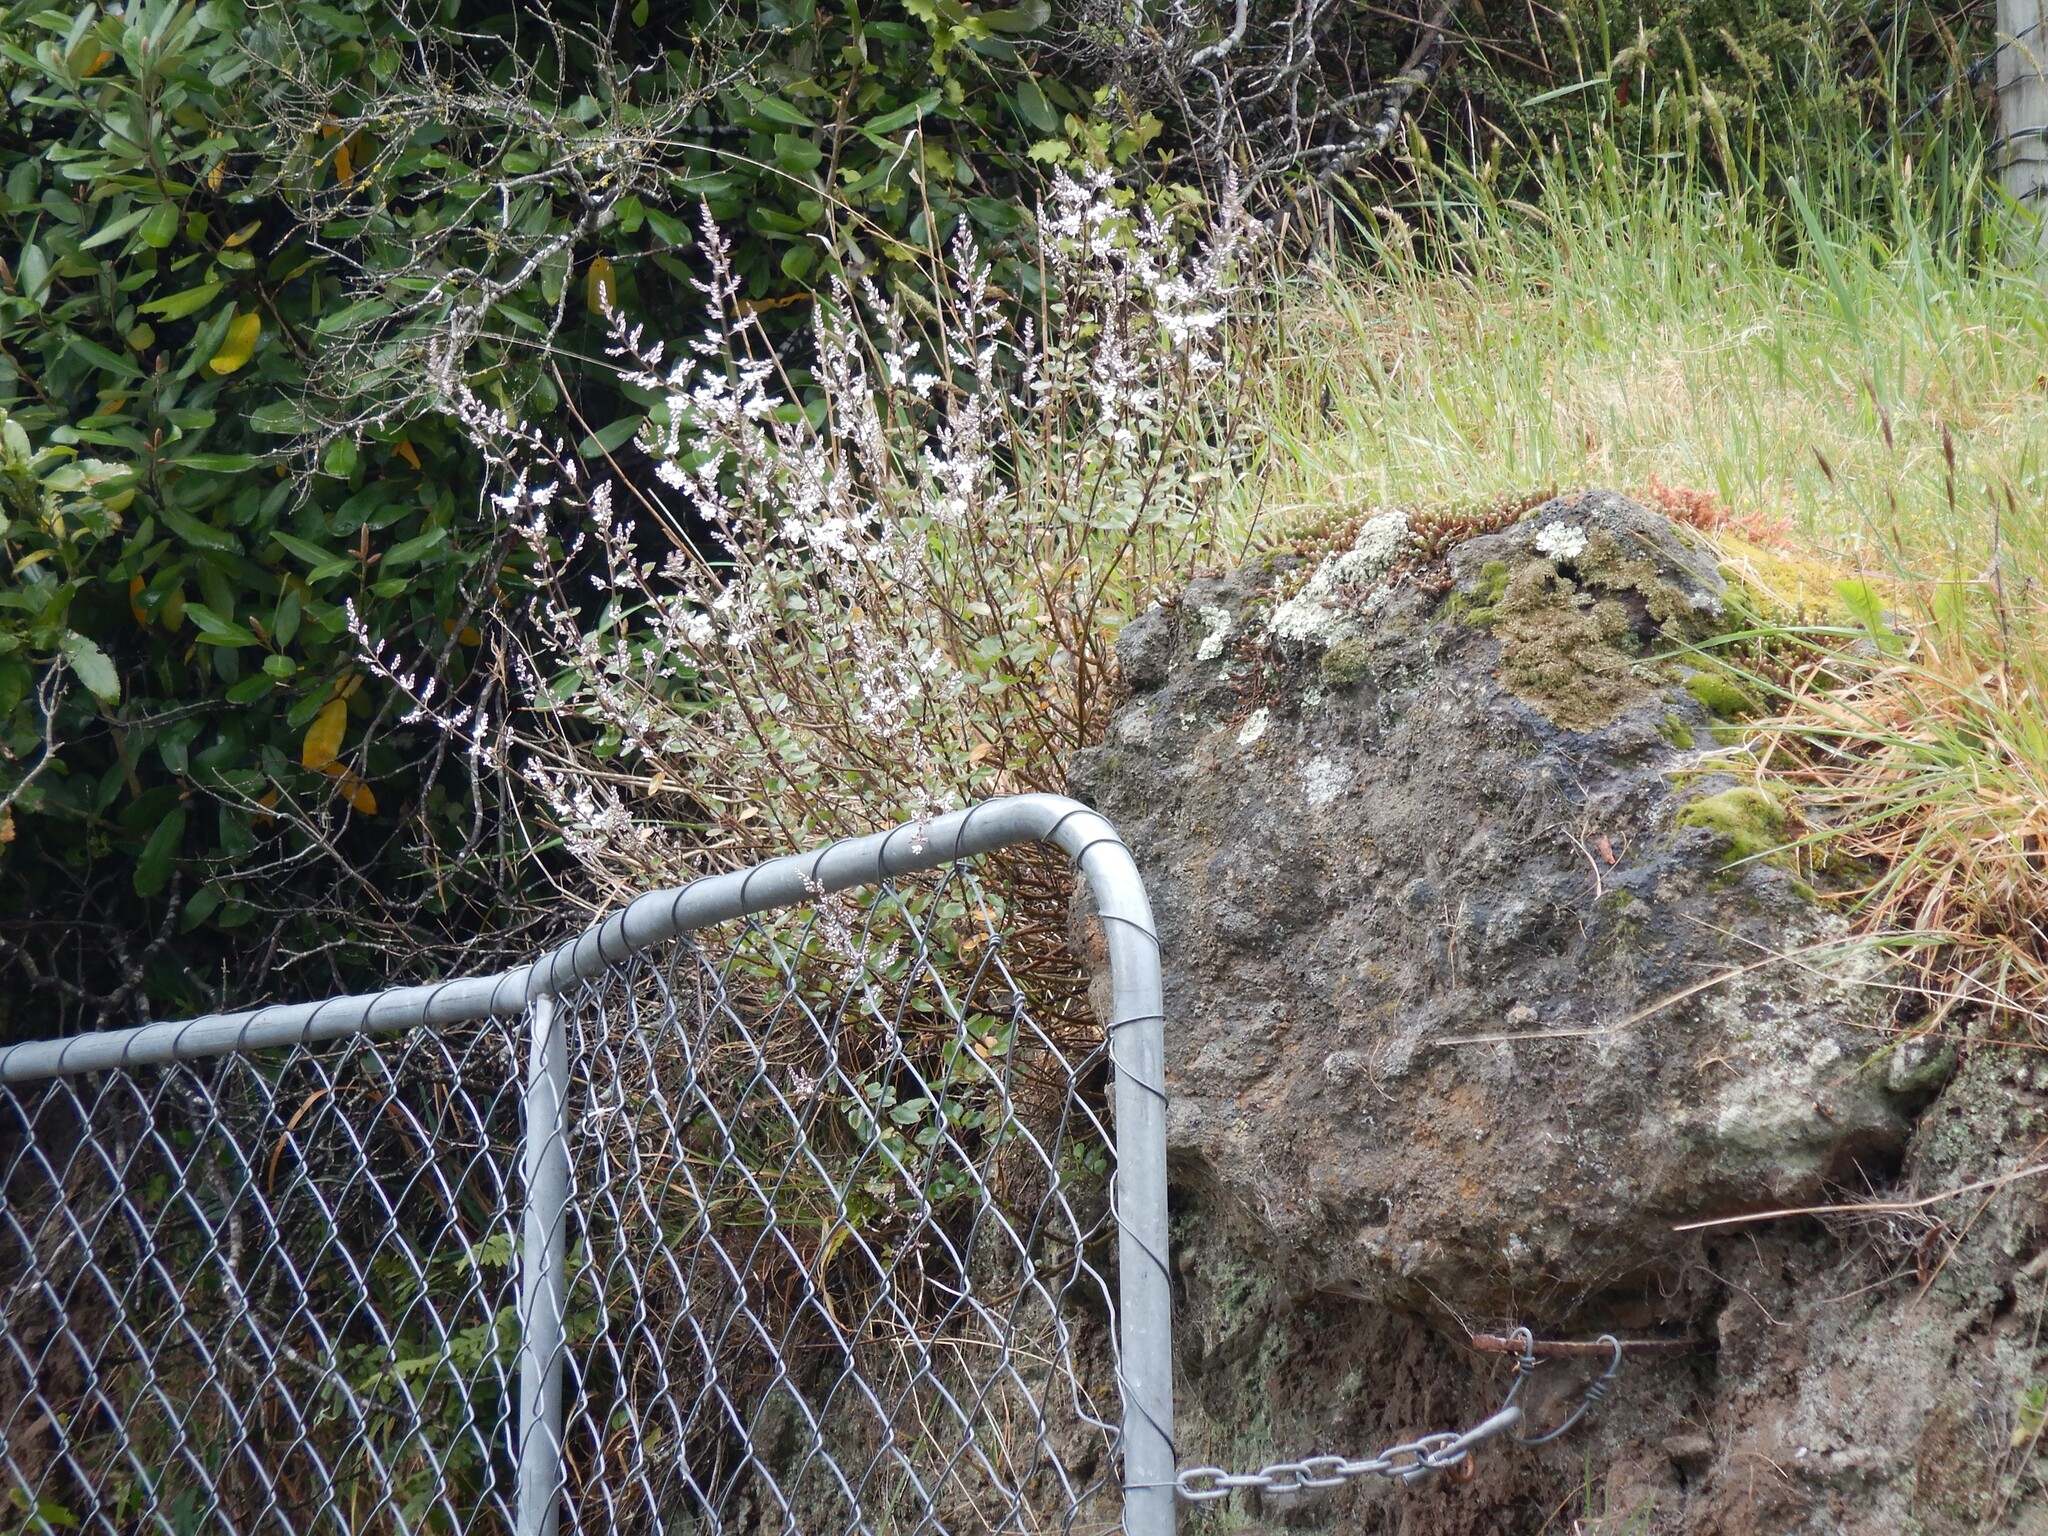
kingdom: Plantae
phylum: Tracheophyta
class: Magnoliopsida
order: Lamiales
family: Plantaginaceae
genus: Veronica
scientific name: Veronica lavaudiana
